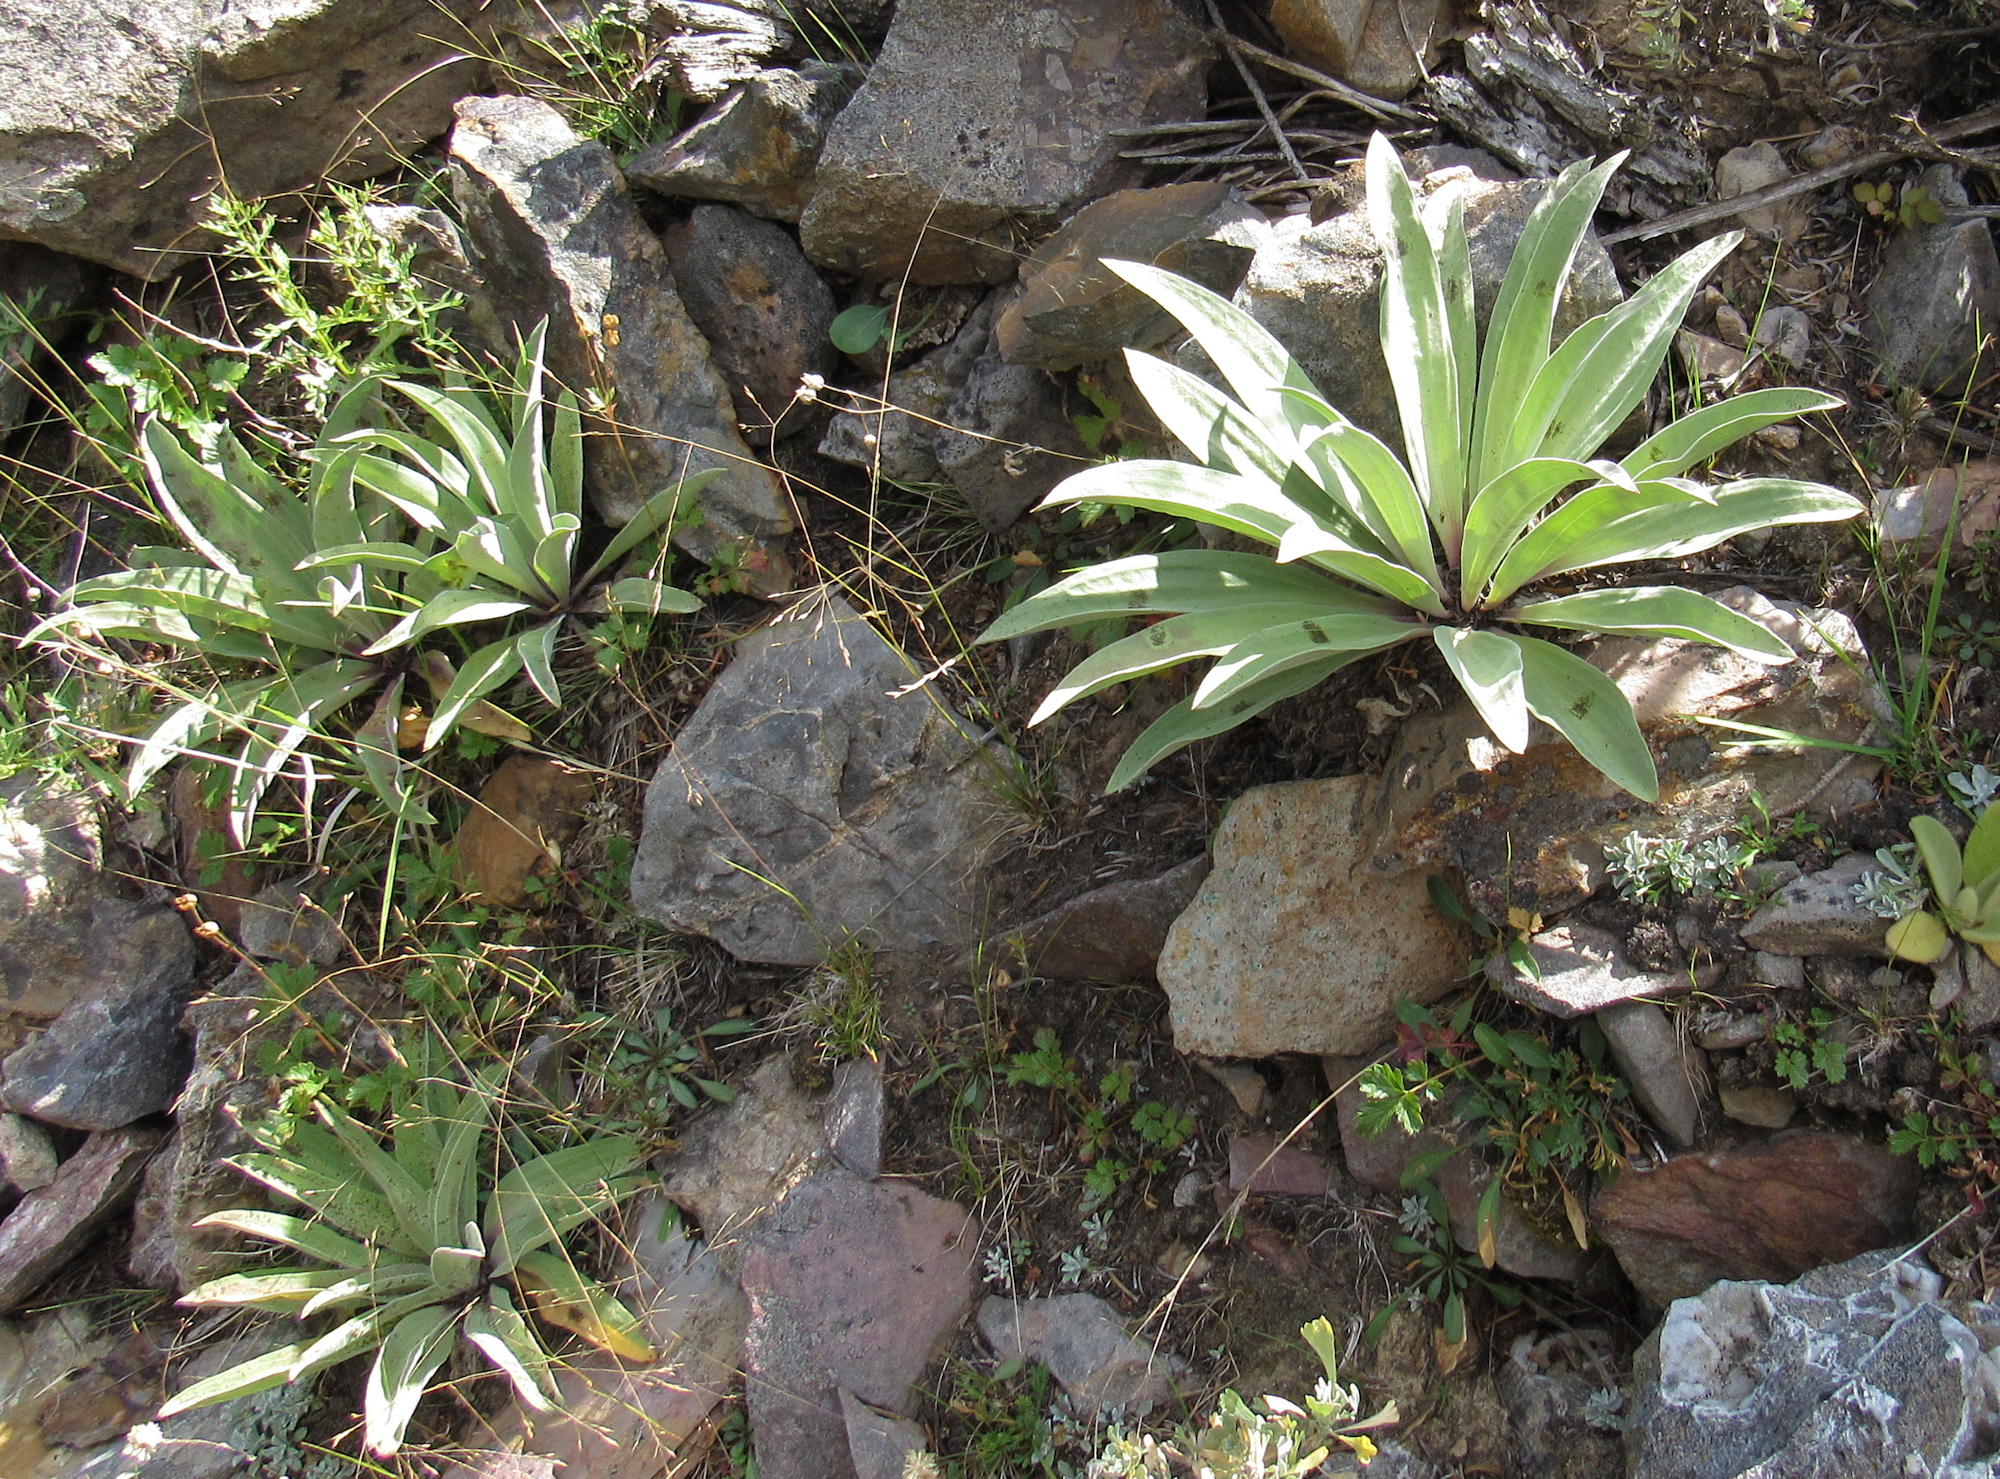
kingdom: Plantae
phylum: Tracheophyta
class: Magnoliopsida
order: Gentianales
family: Gentianaceae
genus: Frasera
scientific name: Frasera speciosa
